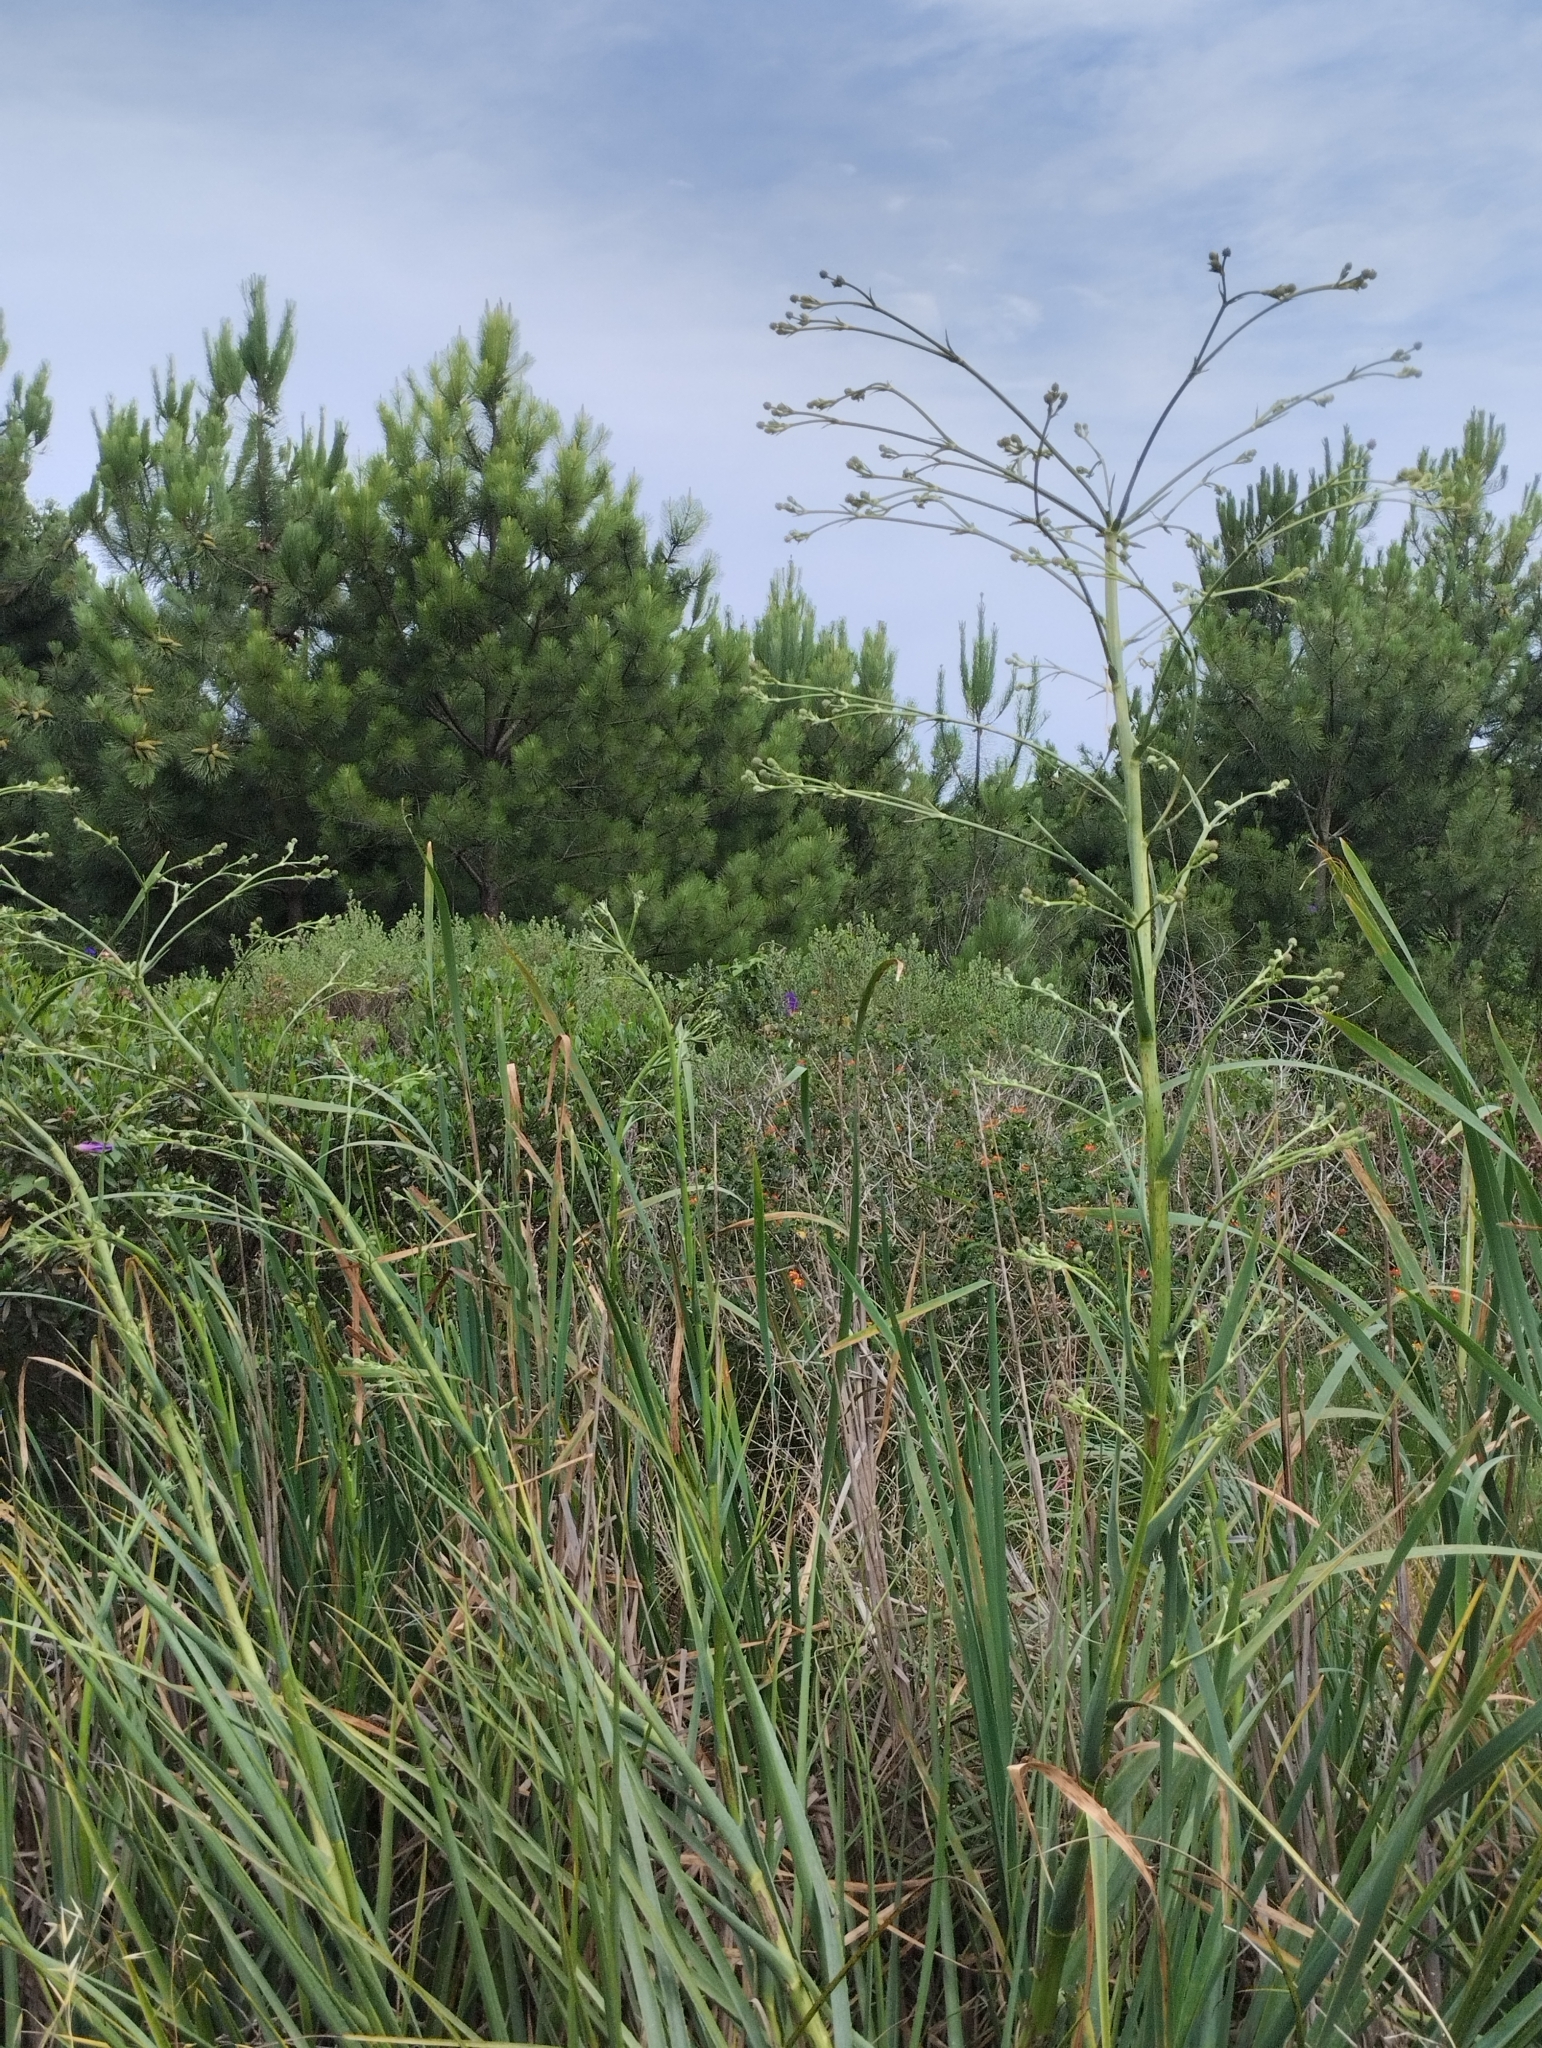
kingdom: Plantae
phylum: Tracheophyta
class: Magnoliopsida
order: Apiales
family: Apiaceae
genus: Eryngium
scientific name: Eryngium pandanifolium
